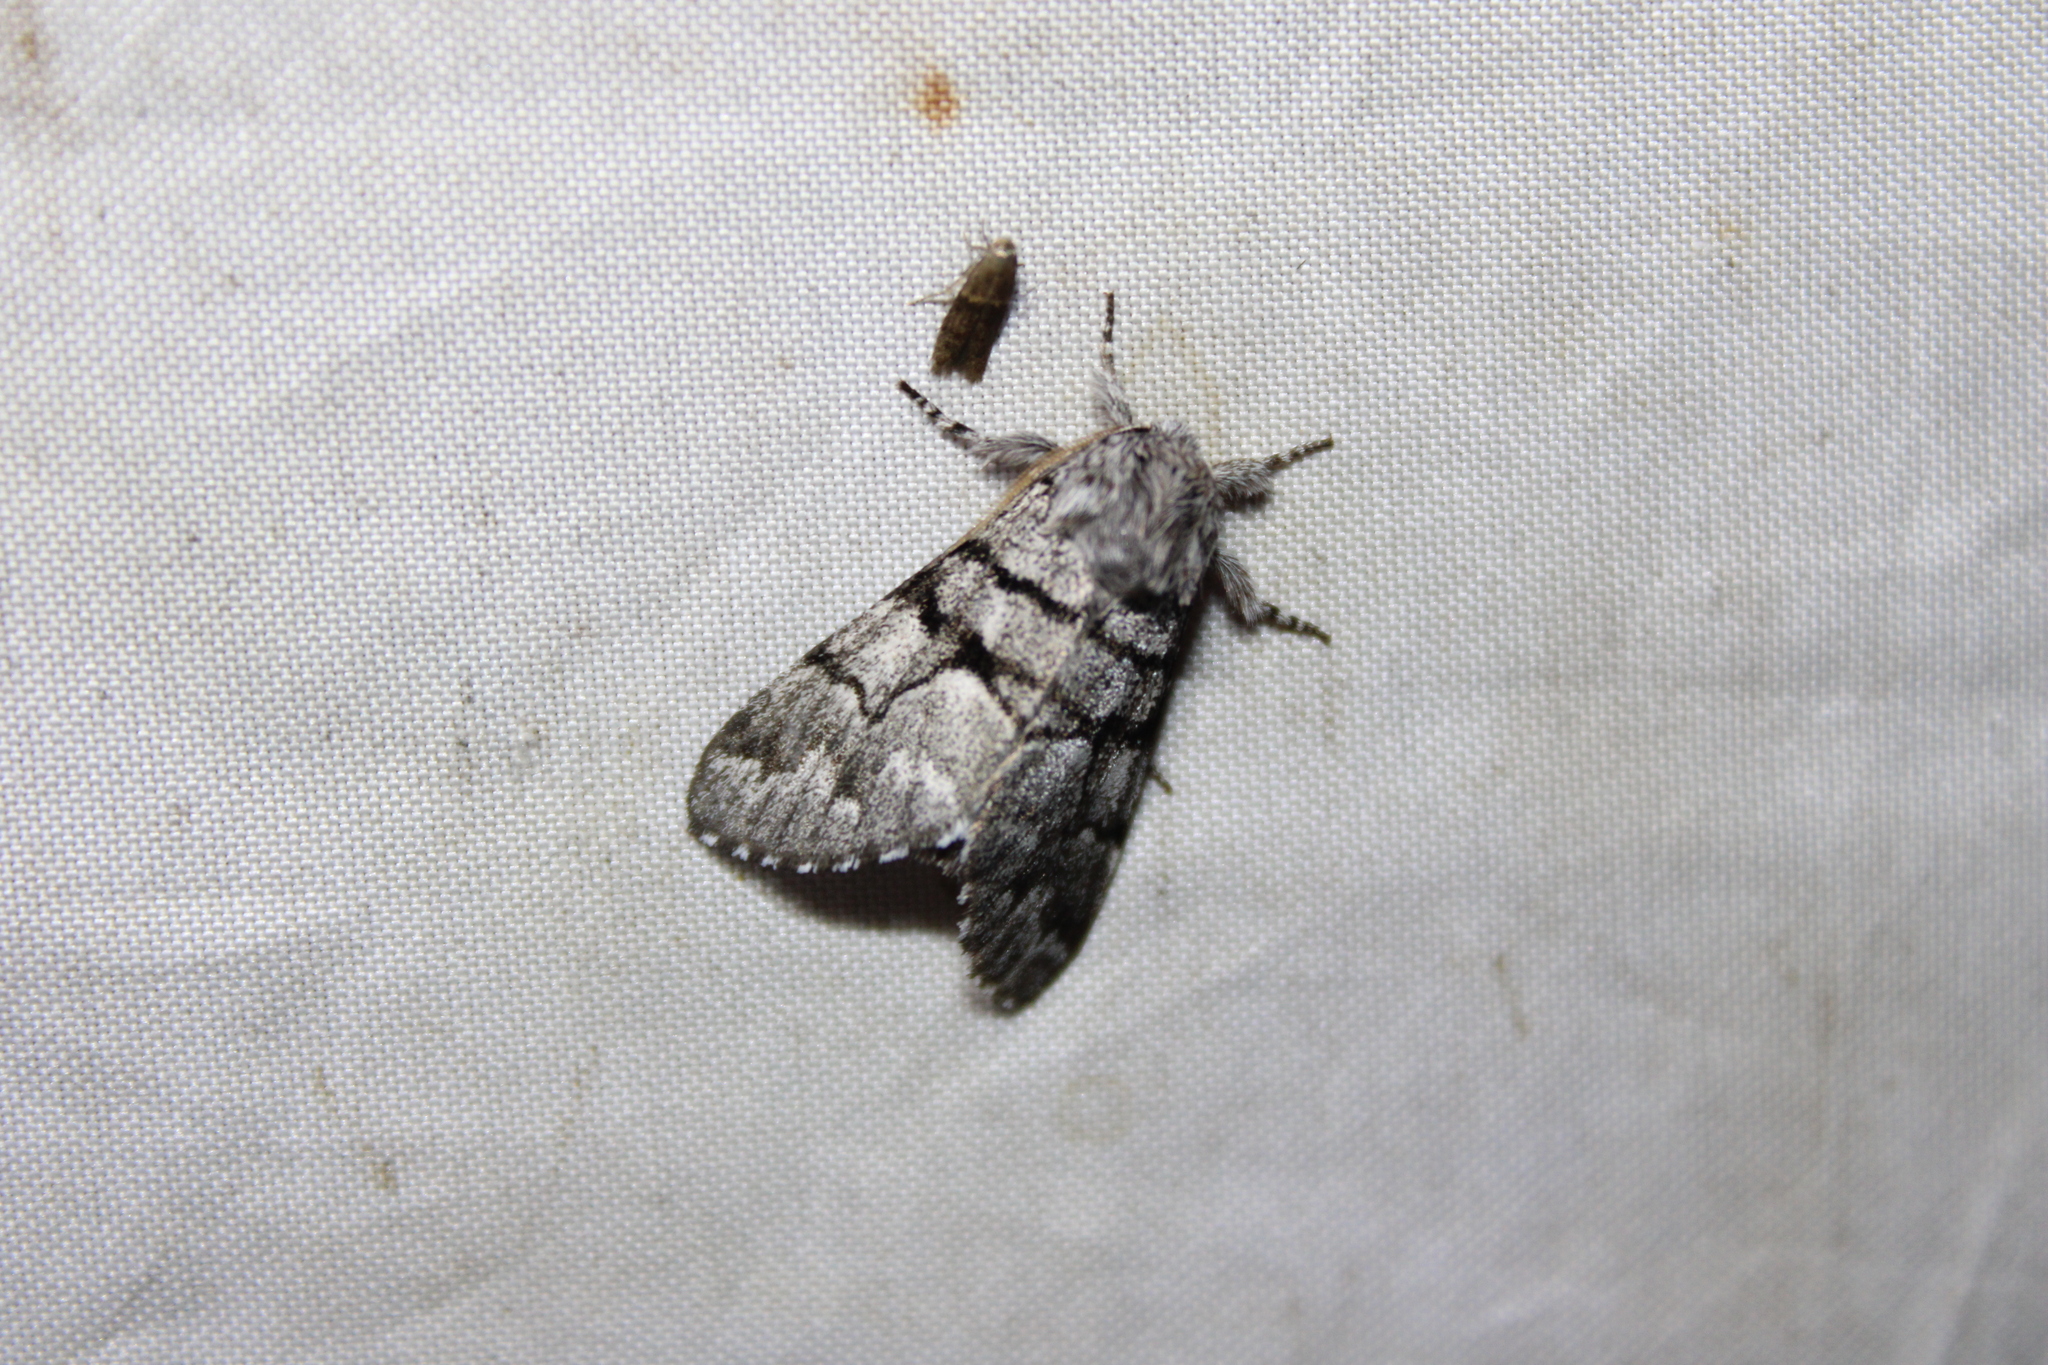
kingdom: Animalia
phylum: Arthropoda
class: Insecta
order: Lepidoptera
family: Noctuidae
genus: Panthea
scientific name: Panthea furcilla
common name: Eastern panthea moth
